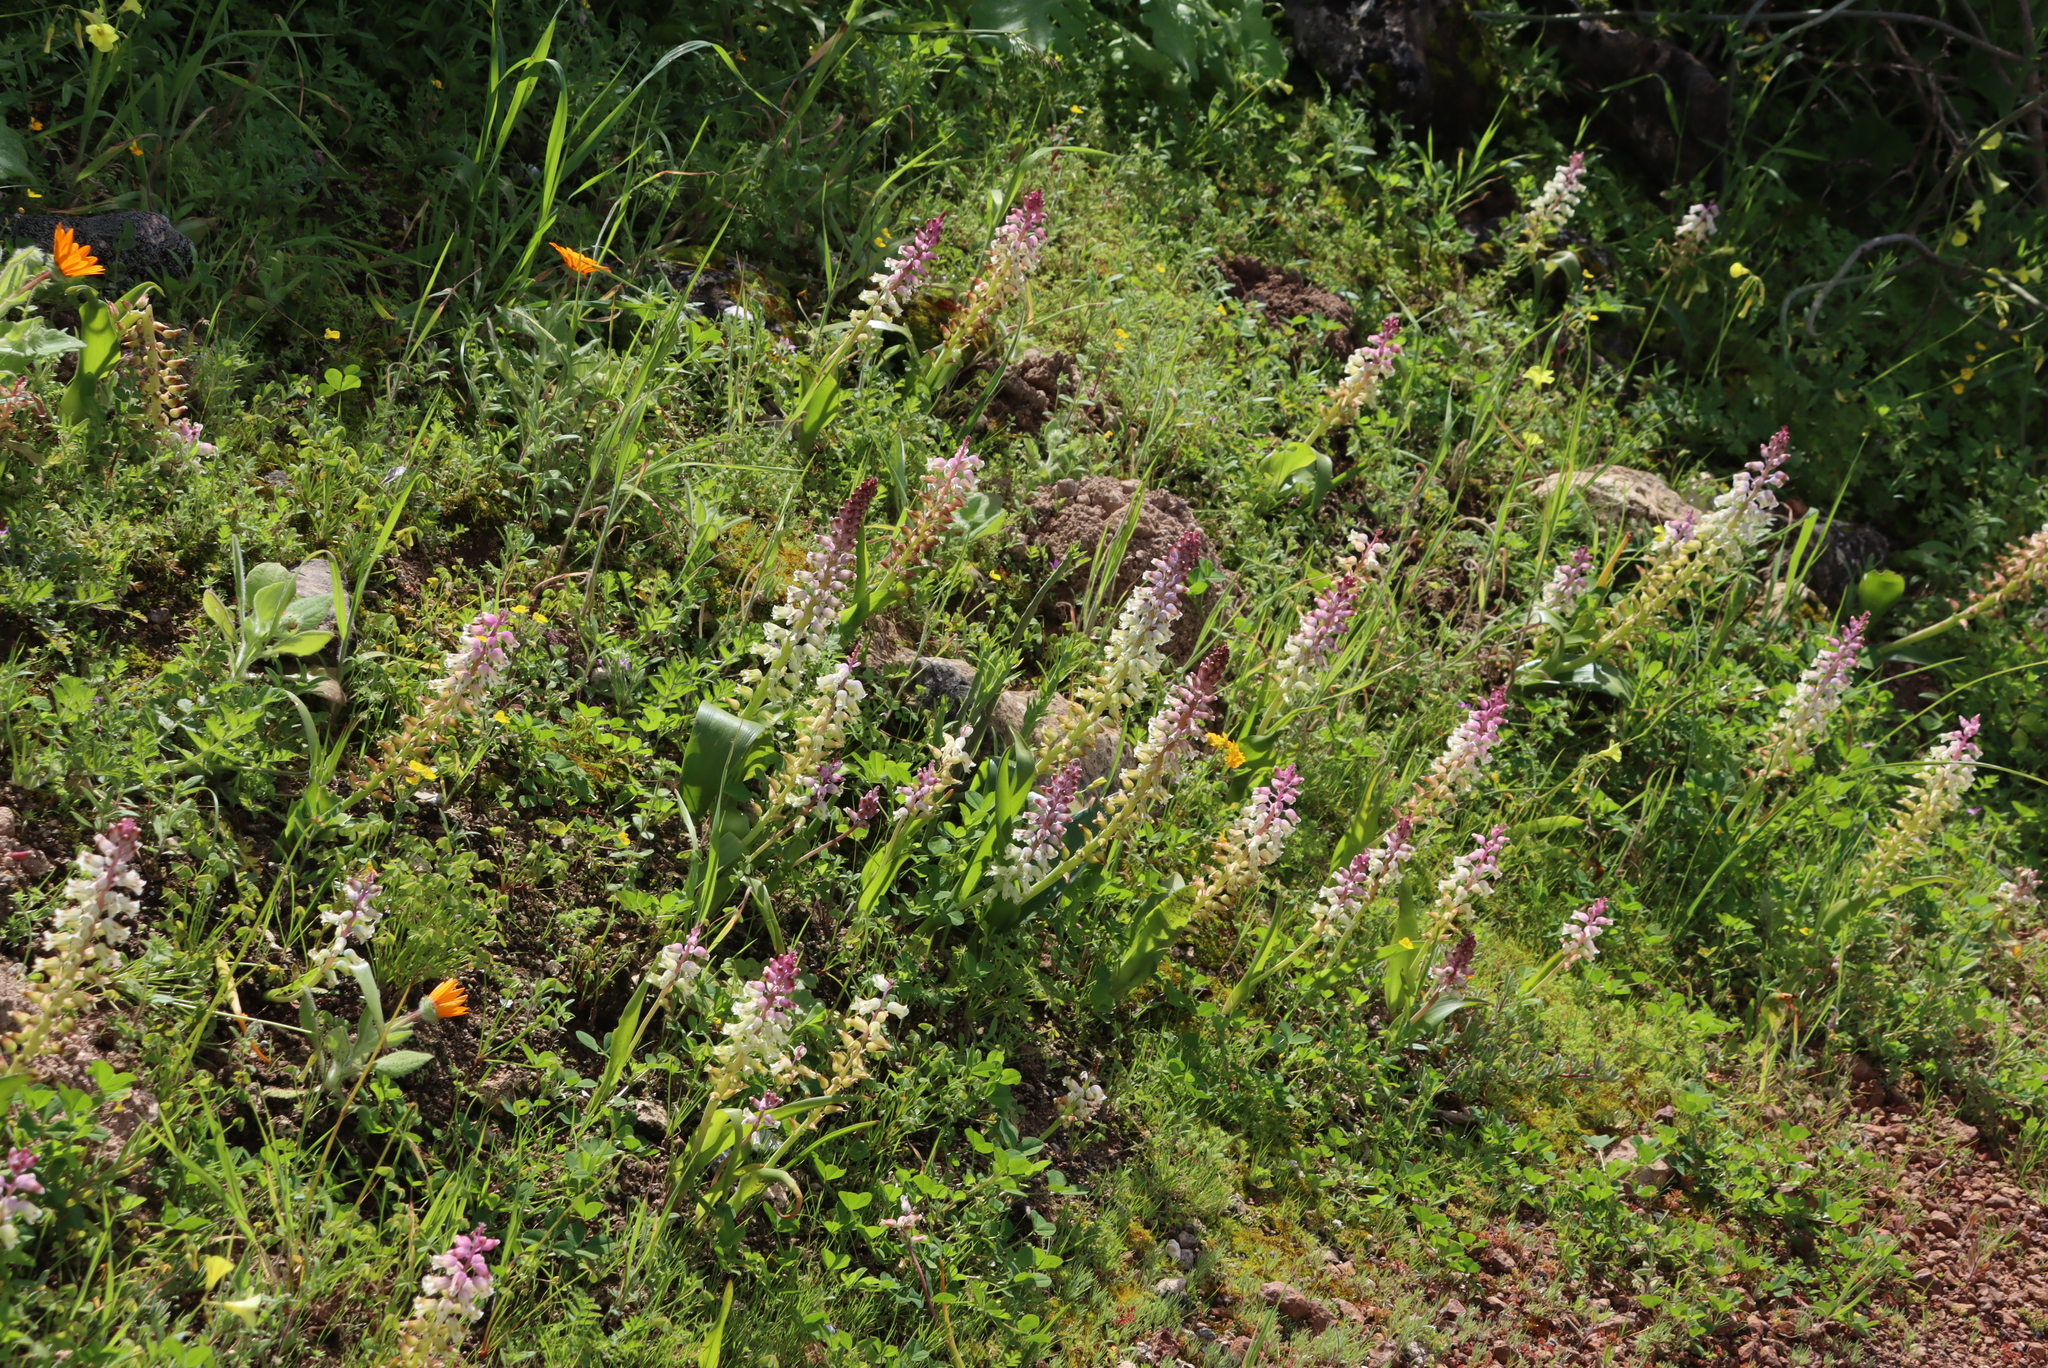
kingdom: Plantae
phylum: Tracheophyta
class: Liliopsida
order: Asparagales
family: Asparagaceae
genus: Lachenalia
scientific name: Lachenalia pallida
